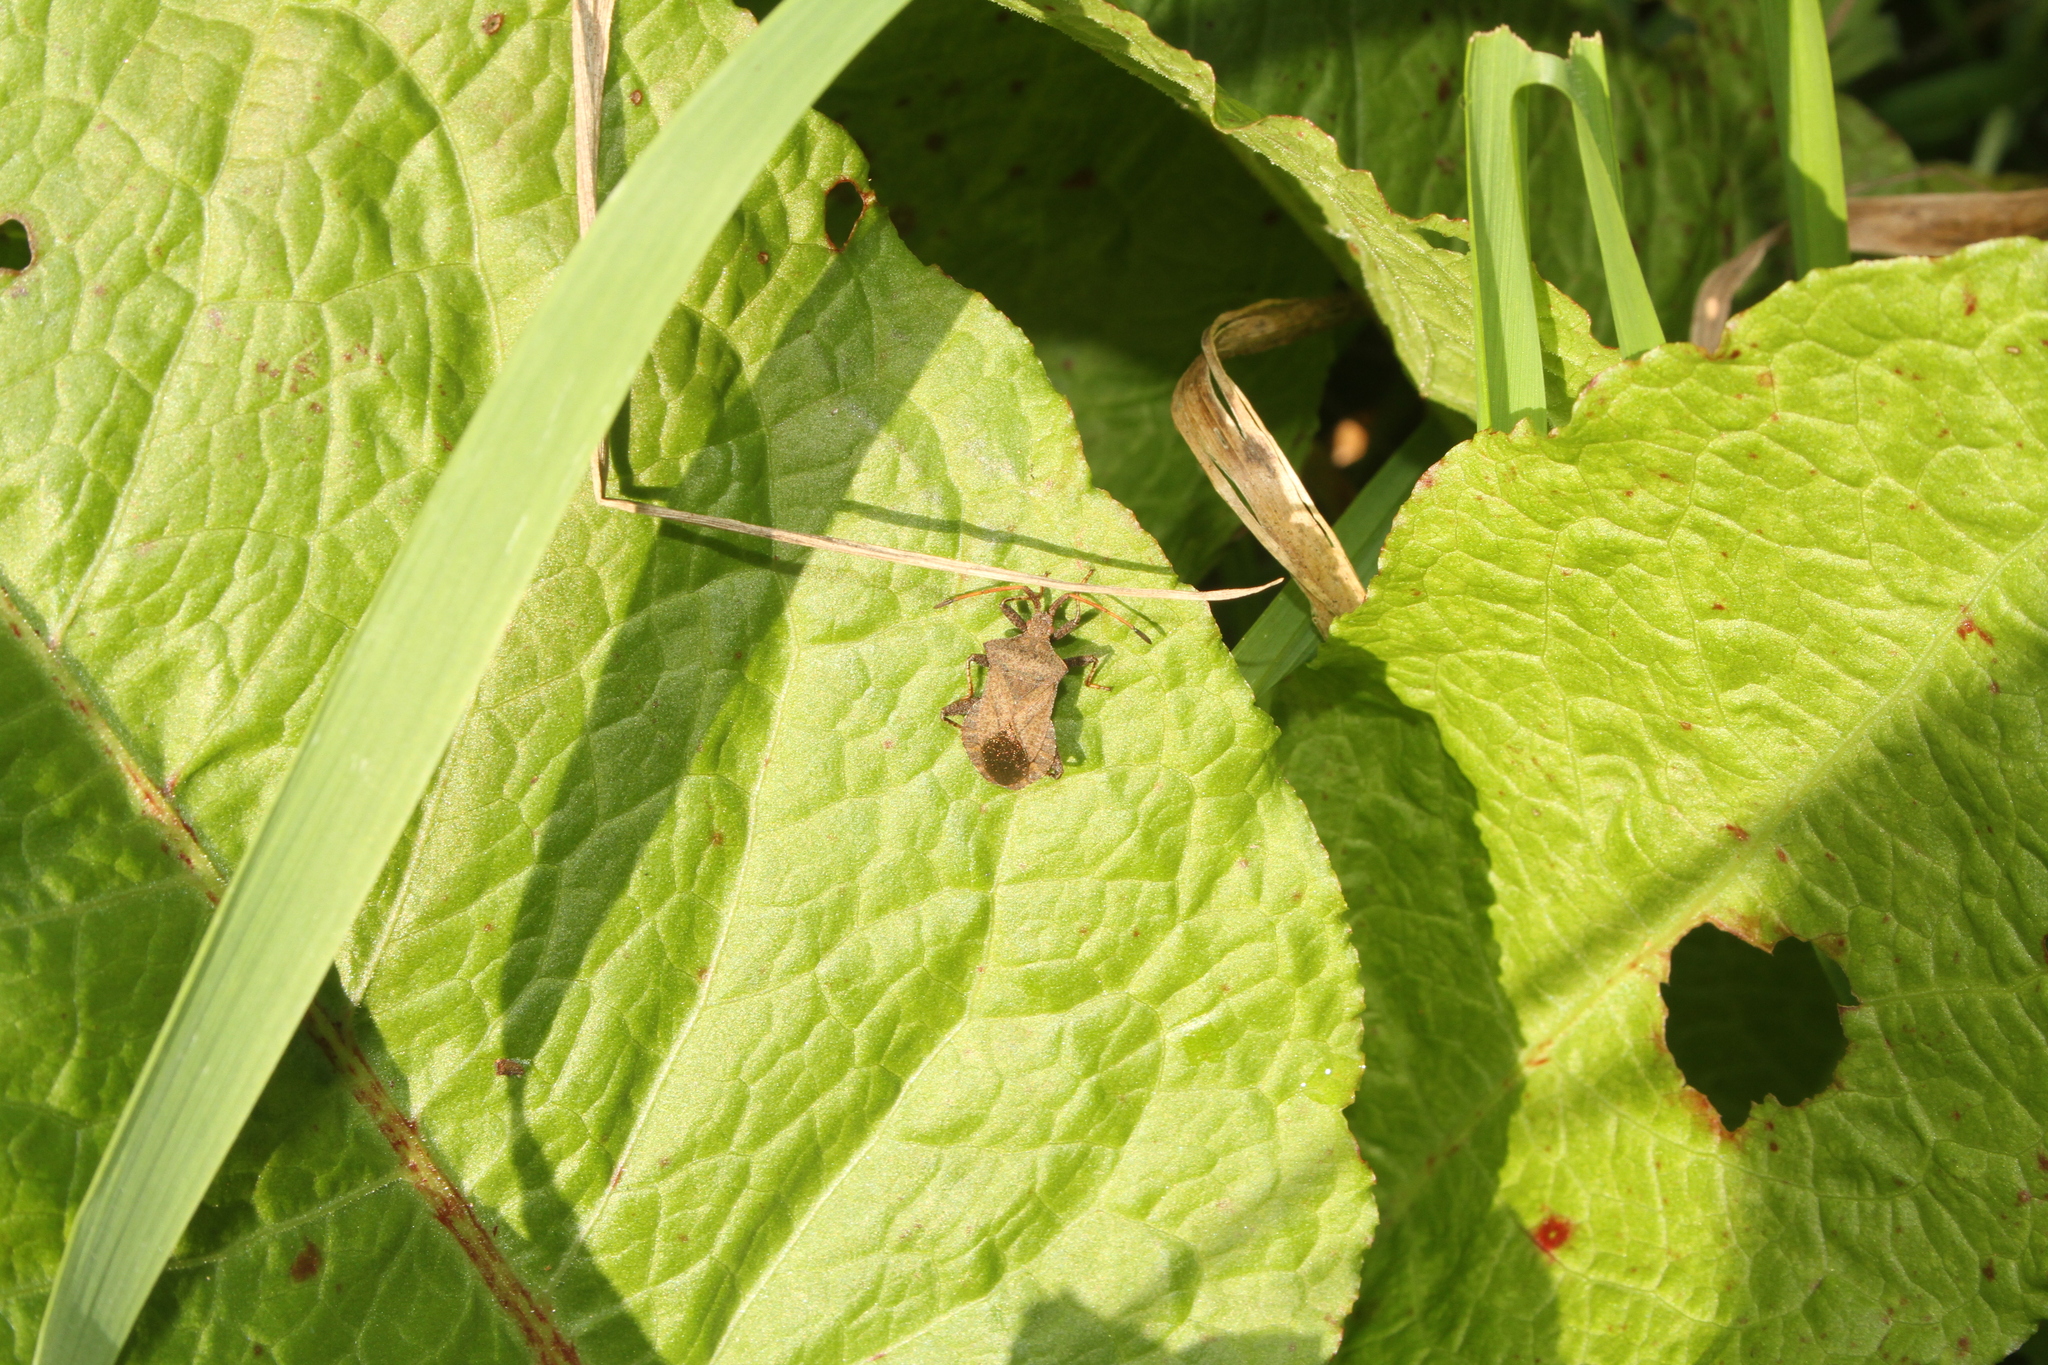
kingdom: Animalia
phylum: Arthropoda
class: Insecta
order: Hemiptera
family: Coreidae
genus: Coreus
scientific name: Coreus marginatus
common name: Dock bug
